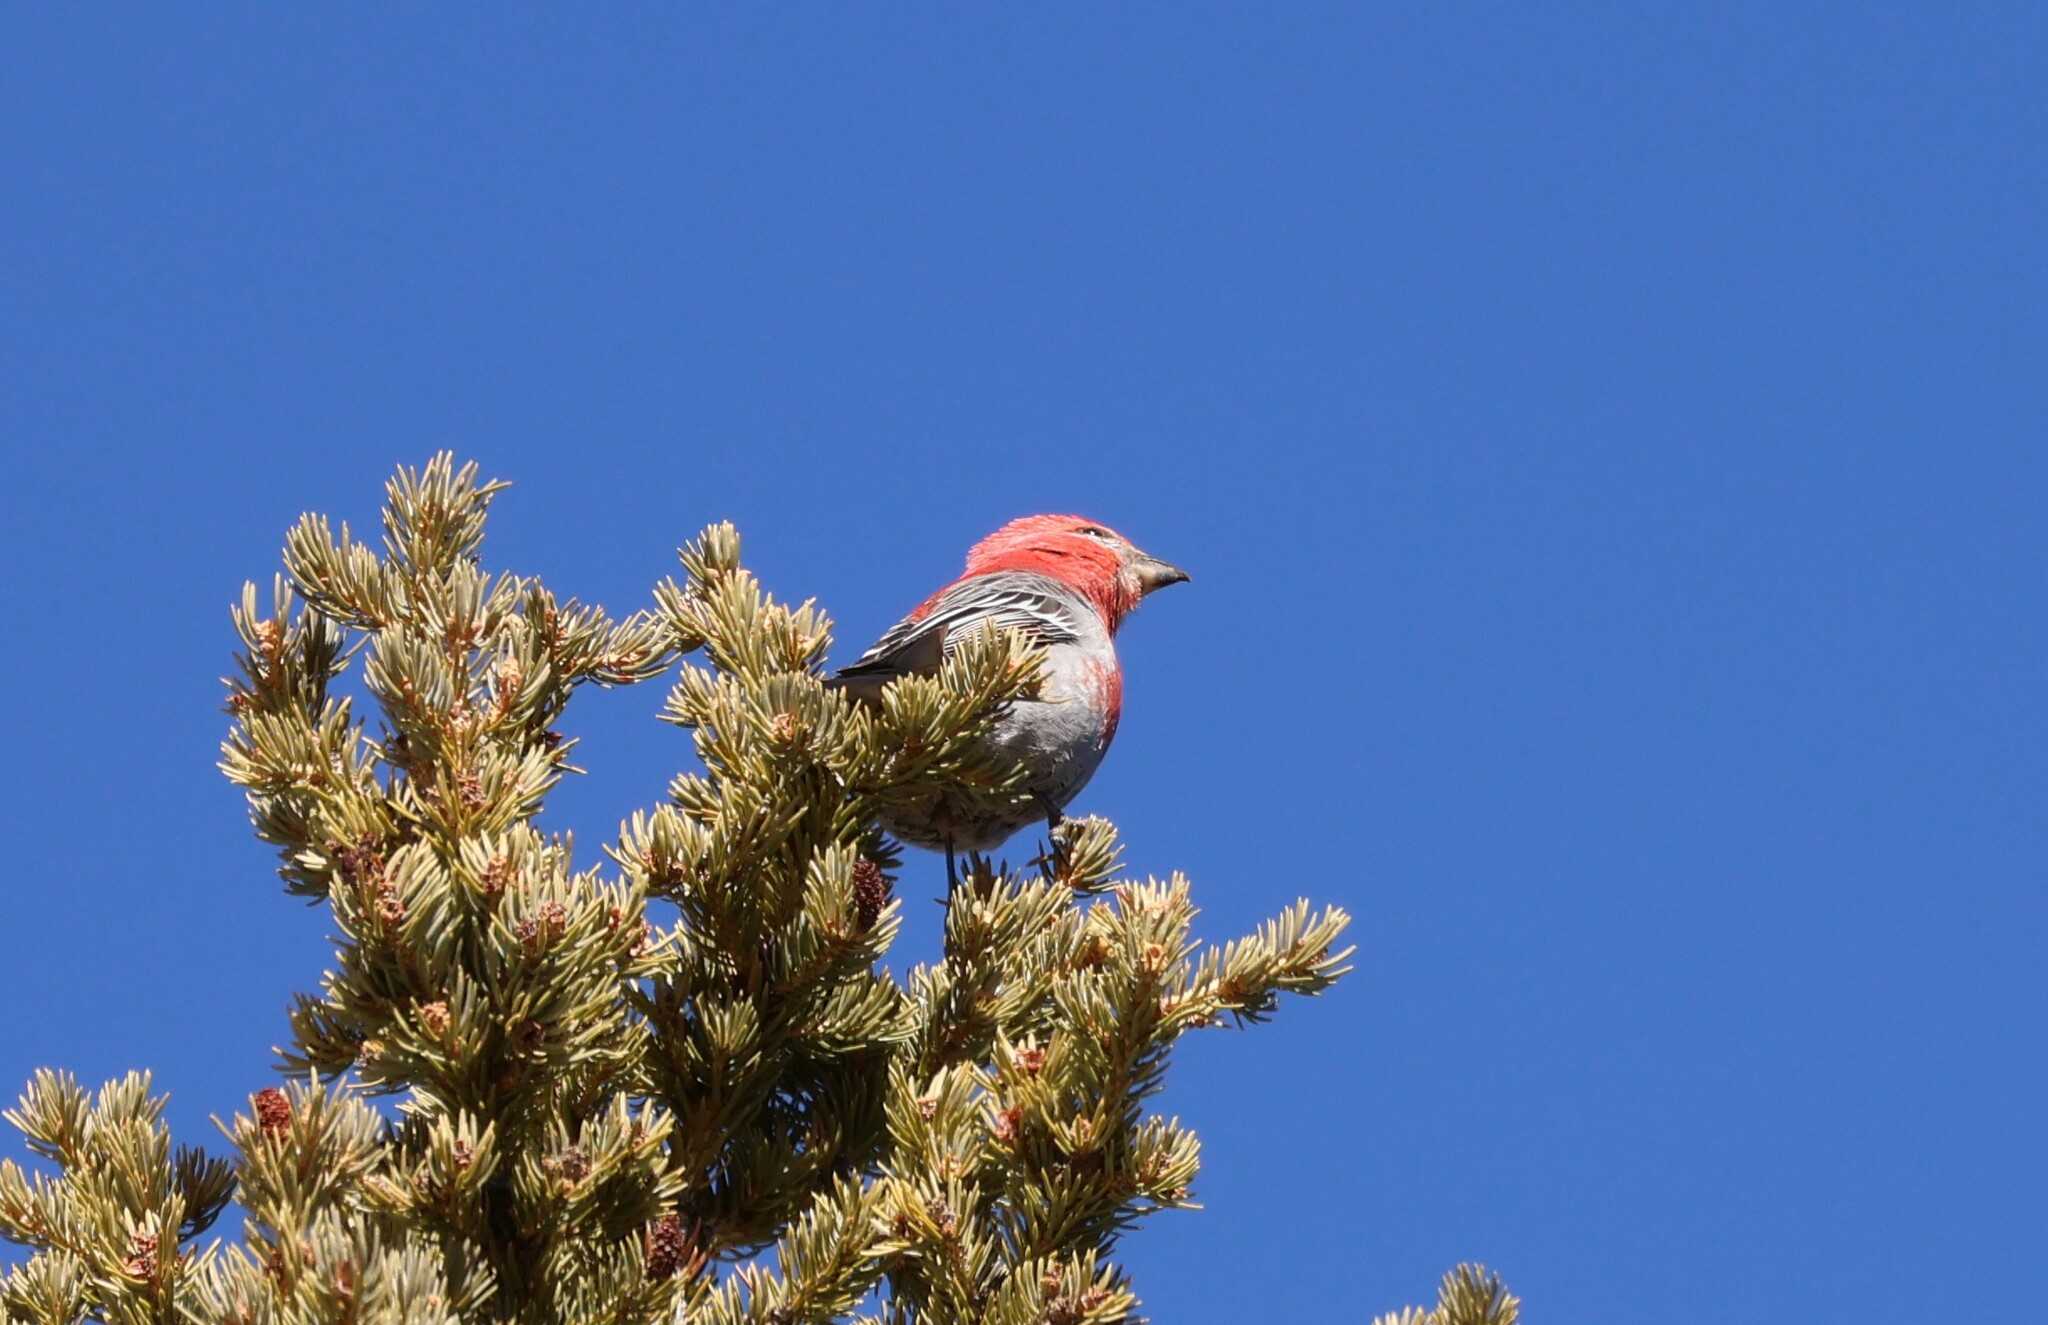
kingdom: Animalia
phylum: Chordata
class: Aves
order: Passeriformes
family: Fringillidae
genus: Pinicola
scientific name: Pinicola enucleator
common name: Pine grosbeak
